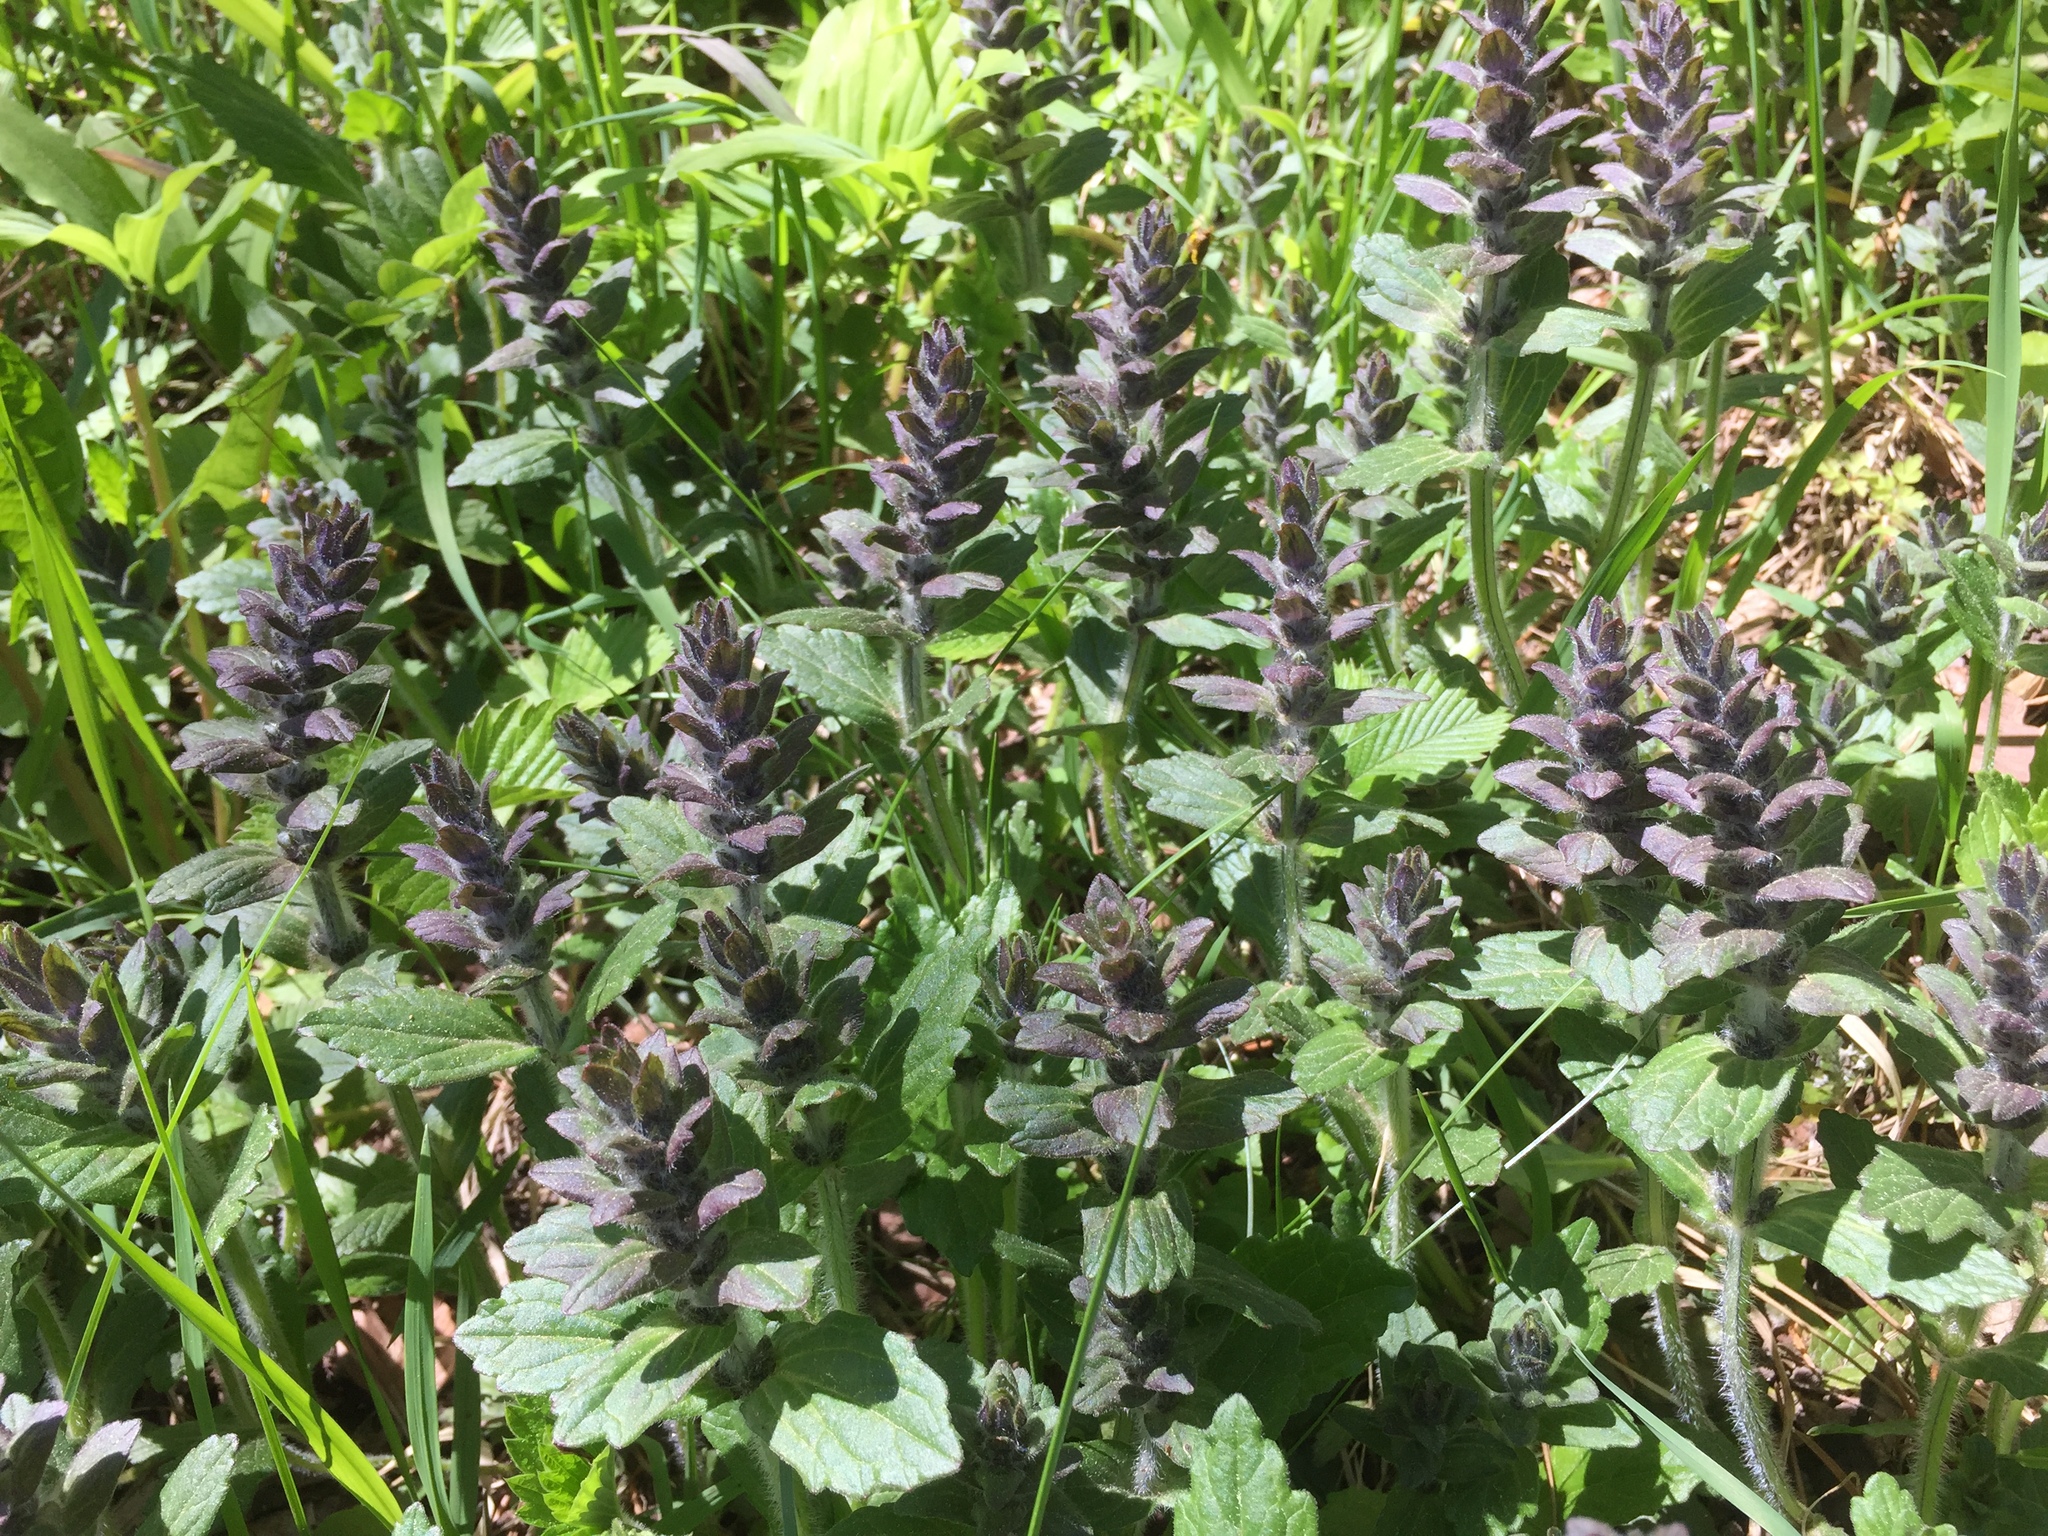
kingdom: Plantae
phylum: Tracheophyta
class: Magnoliopsida
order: Lamiales
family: Lamiaceae
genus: Ajuga
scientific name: Ajuga genevensis
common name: Blue bugle
